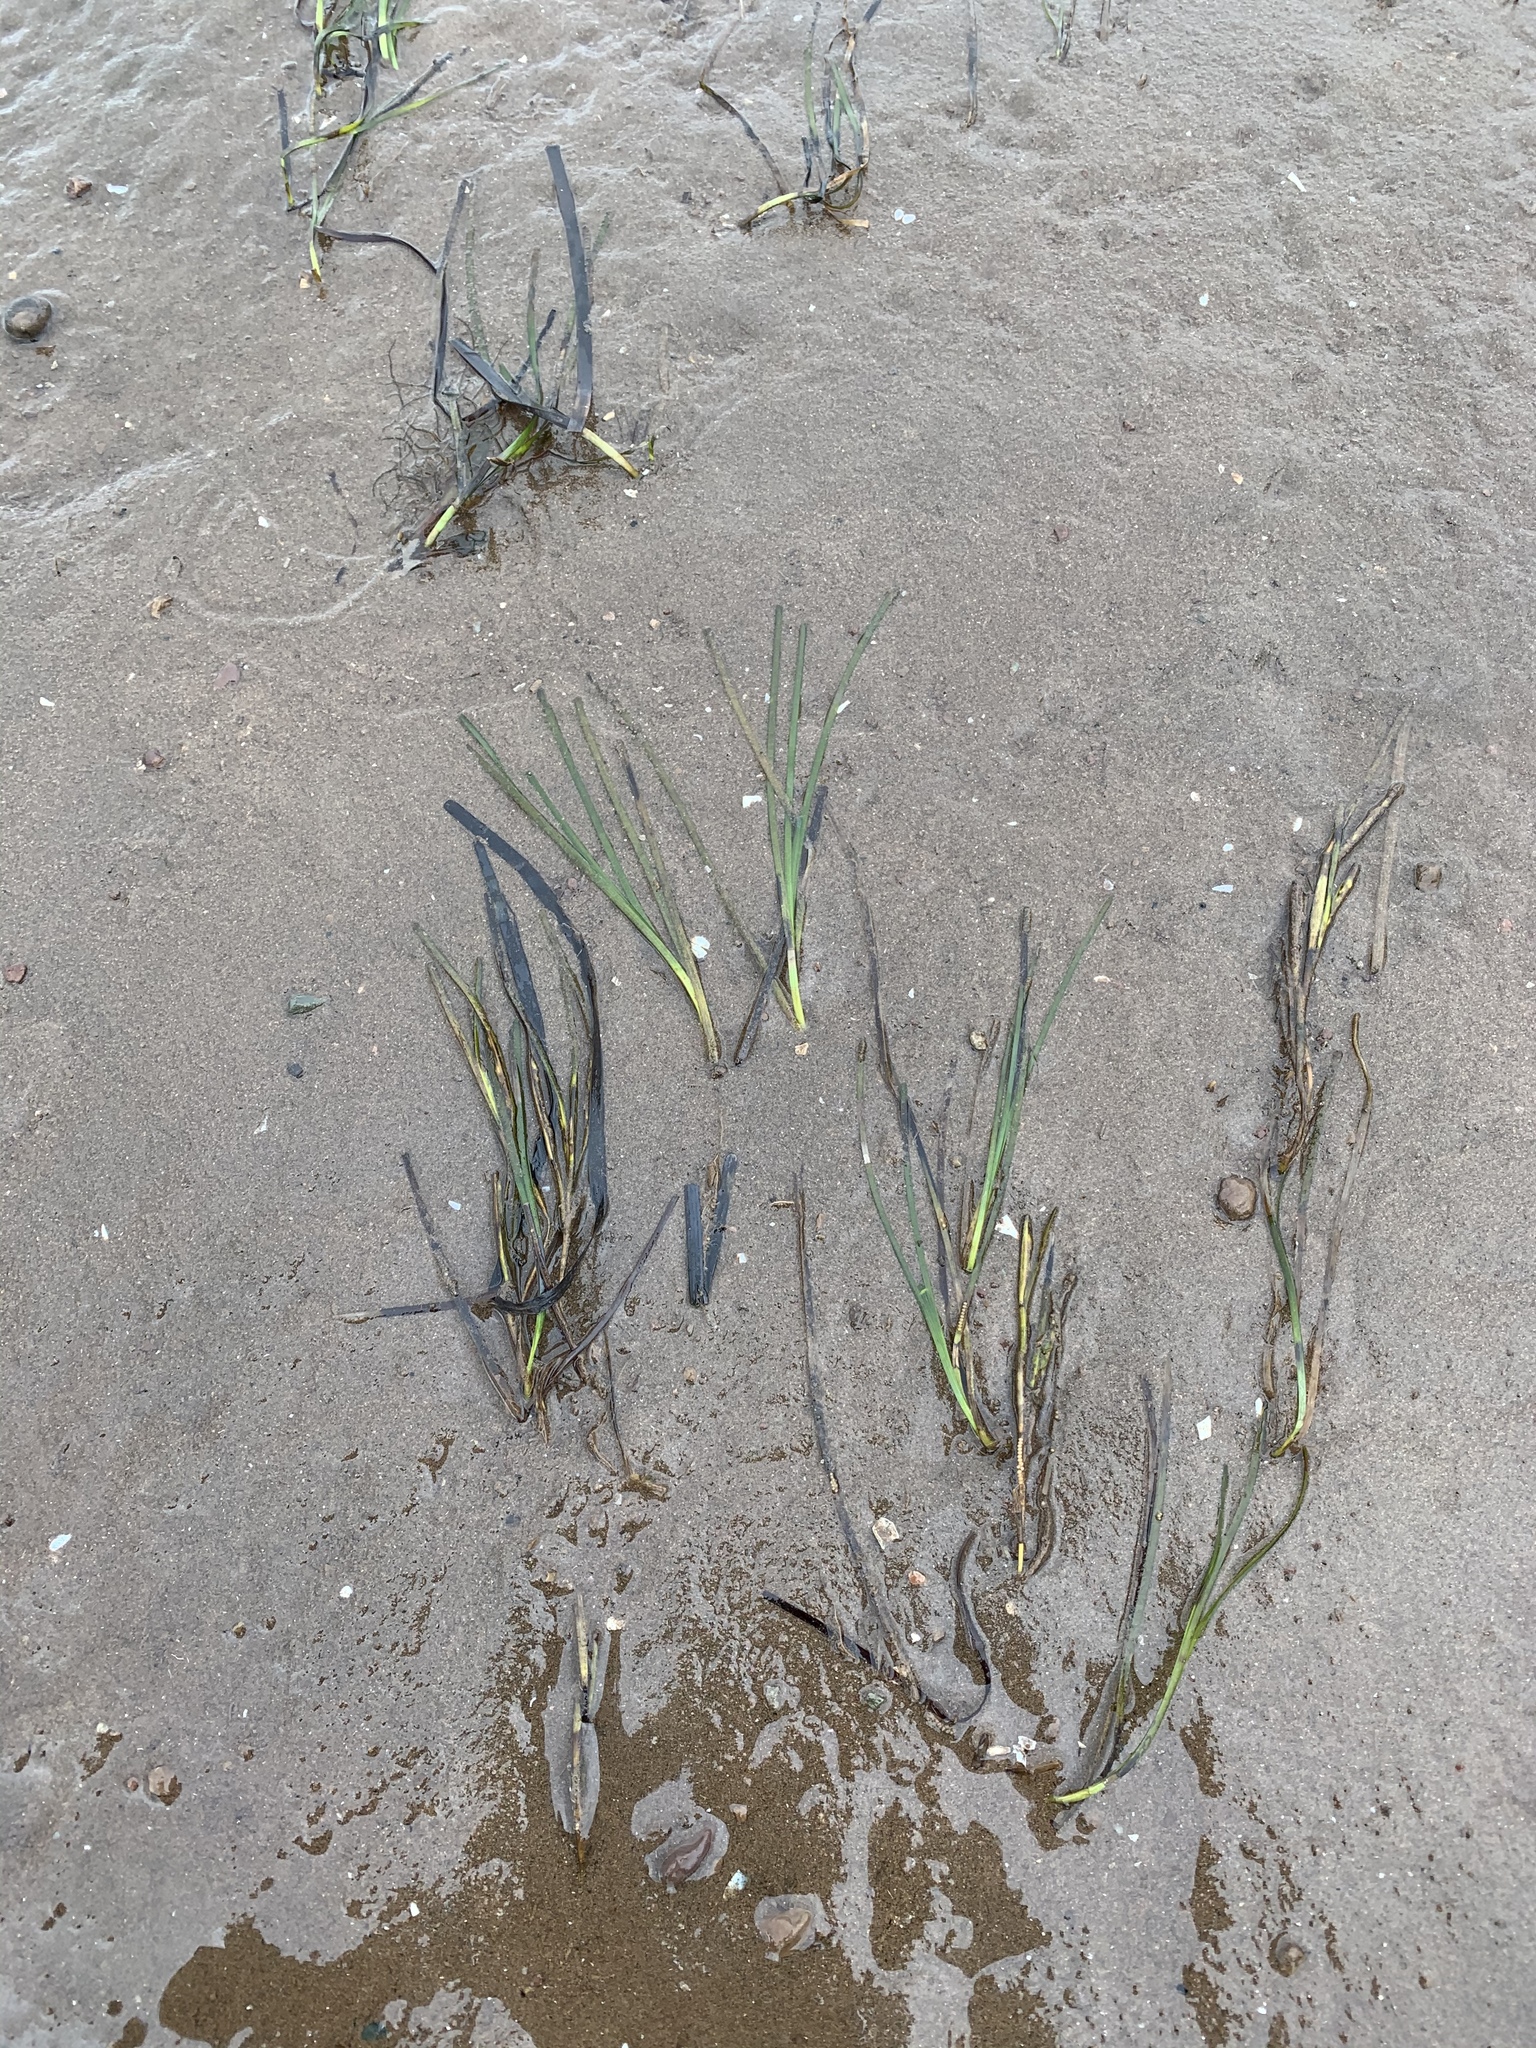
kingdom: Plantae
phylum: Tracheophyta
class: Liliopsida
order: Alismatales
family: Zosteraceae
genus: Zostera
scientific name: Zostera marina
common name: Eelgrass
